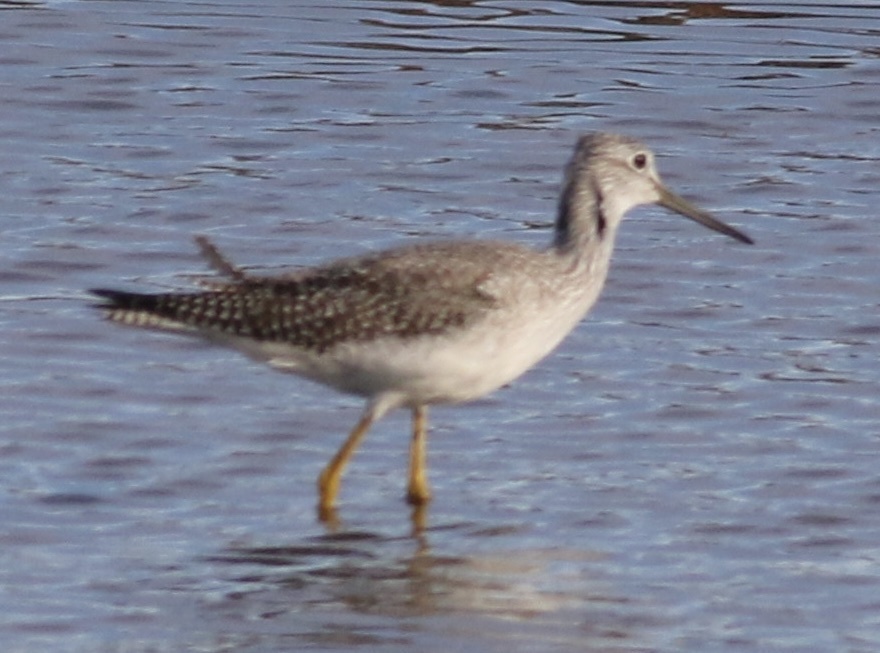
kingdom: Animalia
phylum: Chordata
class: Aves
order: Charadriiformes
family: Scolopacidae
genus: Tringa
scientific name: Tringa melanoleuca
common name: Greater yellowlegs
